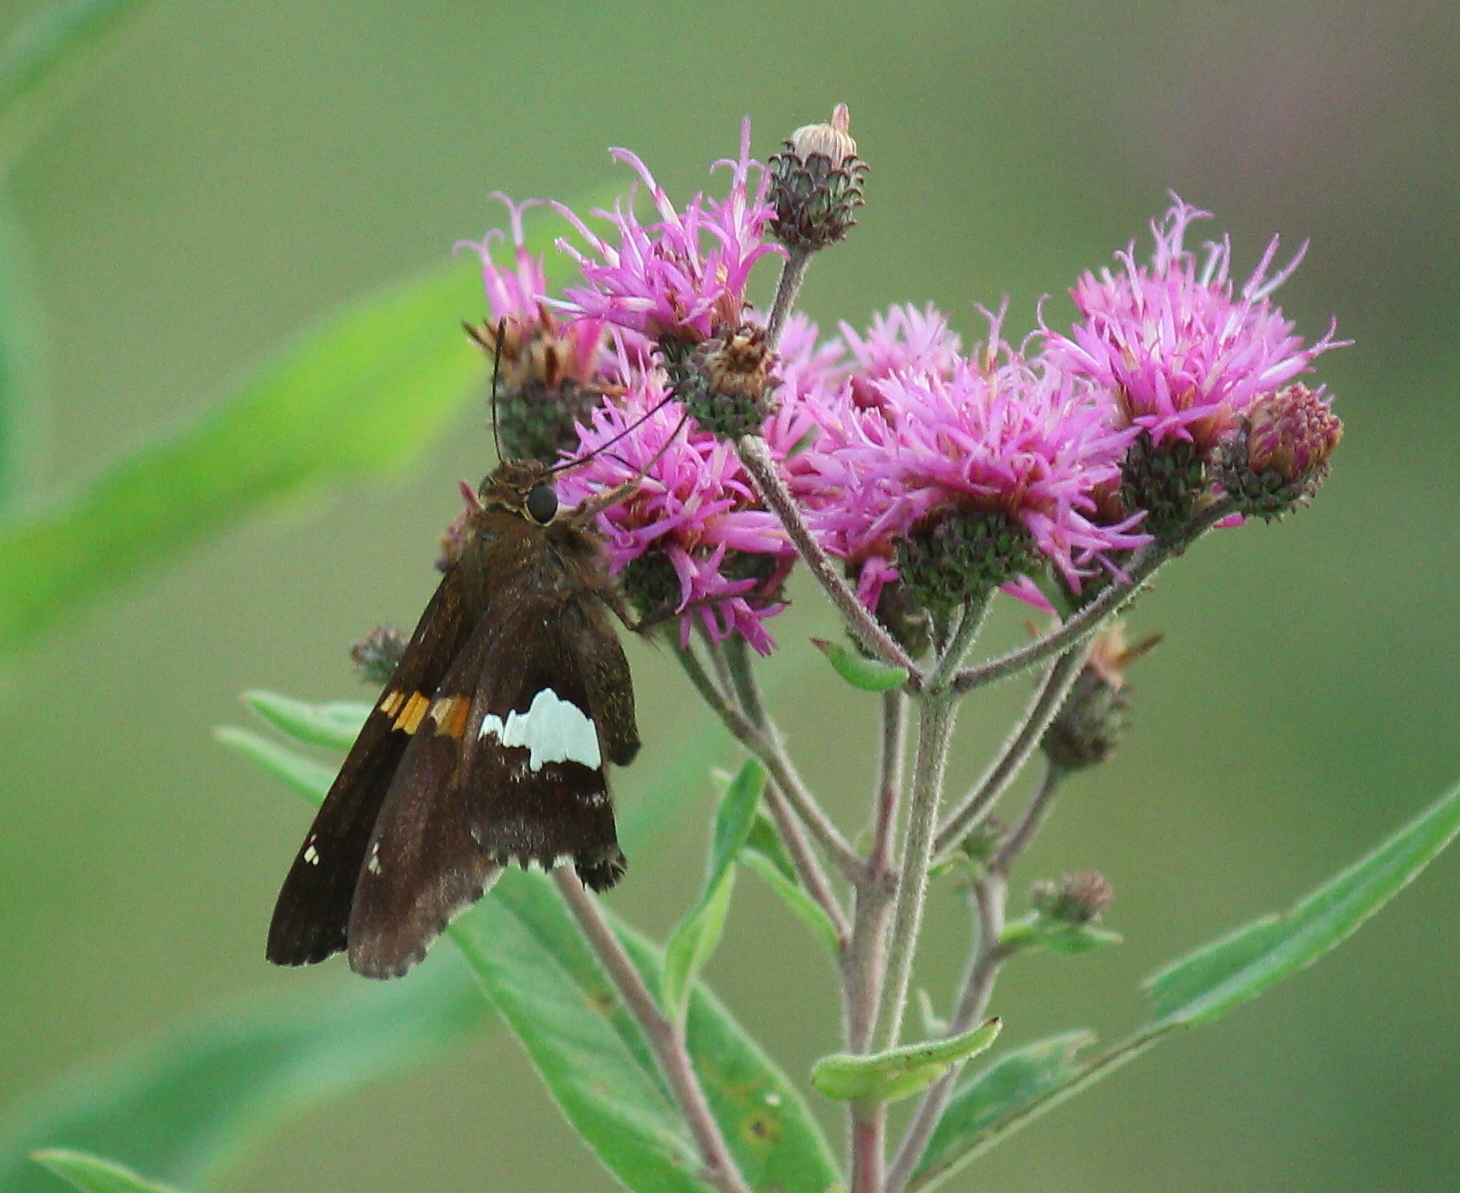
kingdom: Animalia
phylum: Arthropoda
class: Insecta
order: Lepidoptera
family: Hesperiidae
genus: Epargyreus
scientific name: Epargyreus clarus
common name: Silver-spotted skipper
